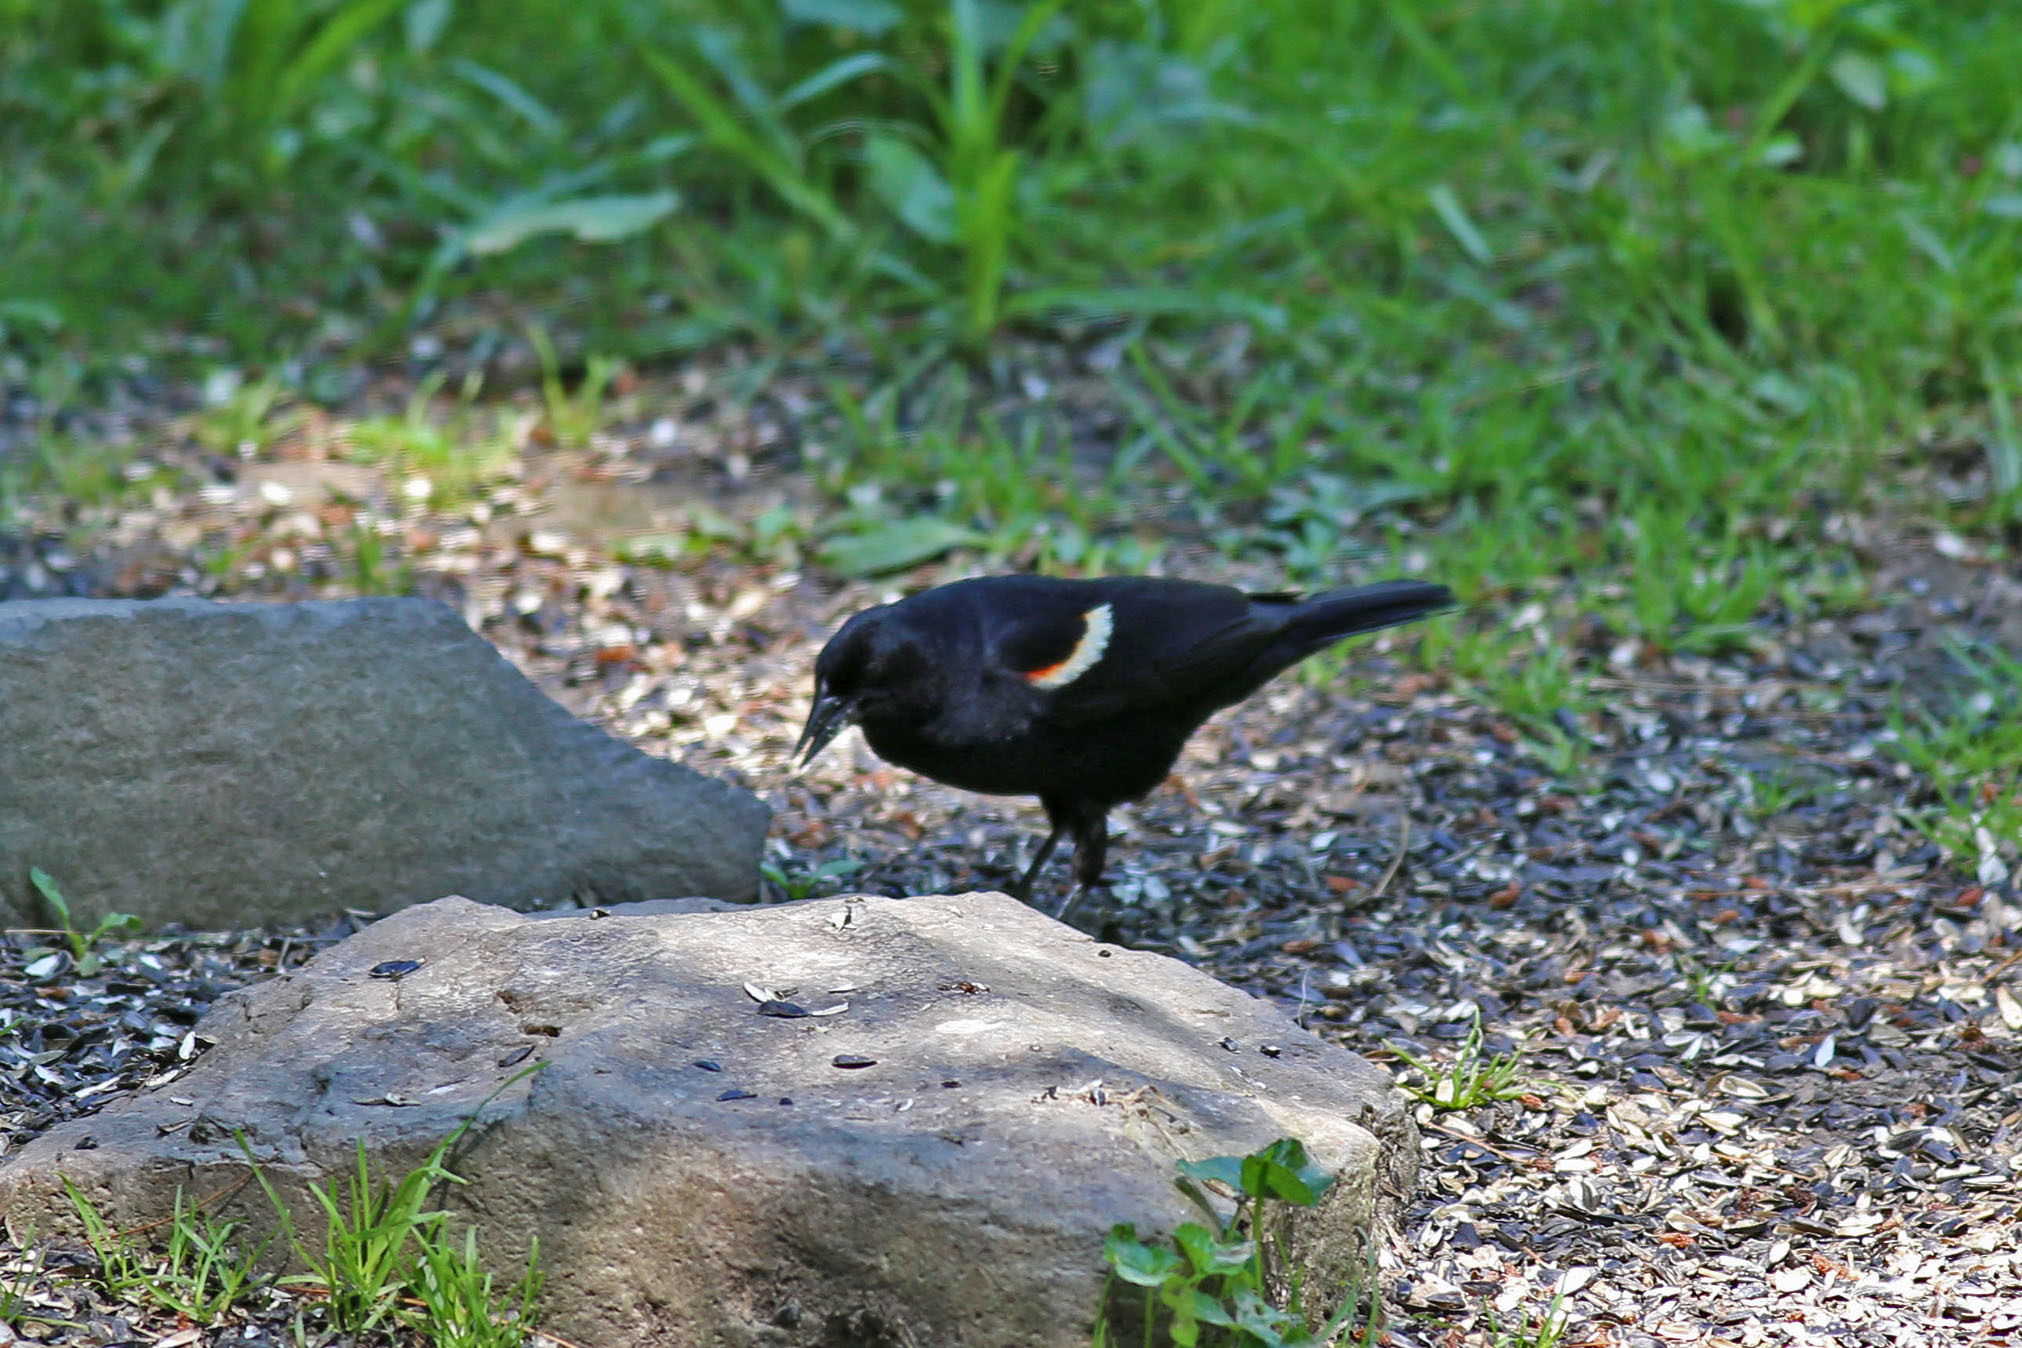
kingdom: Animalia
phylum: Chordata
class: Aves
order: Passeriformes
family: Icteridae
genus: Agelaius
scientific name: Agelaius phoeniceus
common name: Red-winged blackbird
